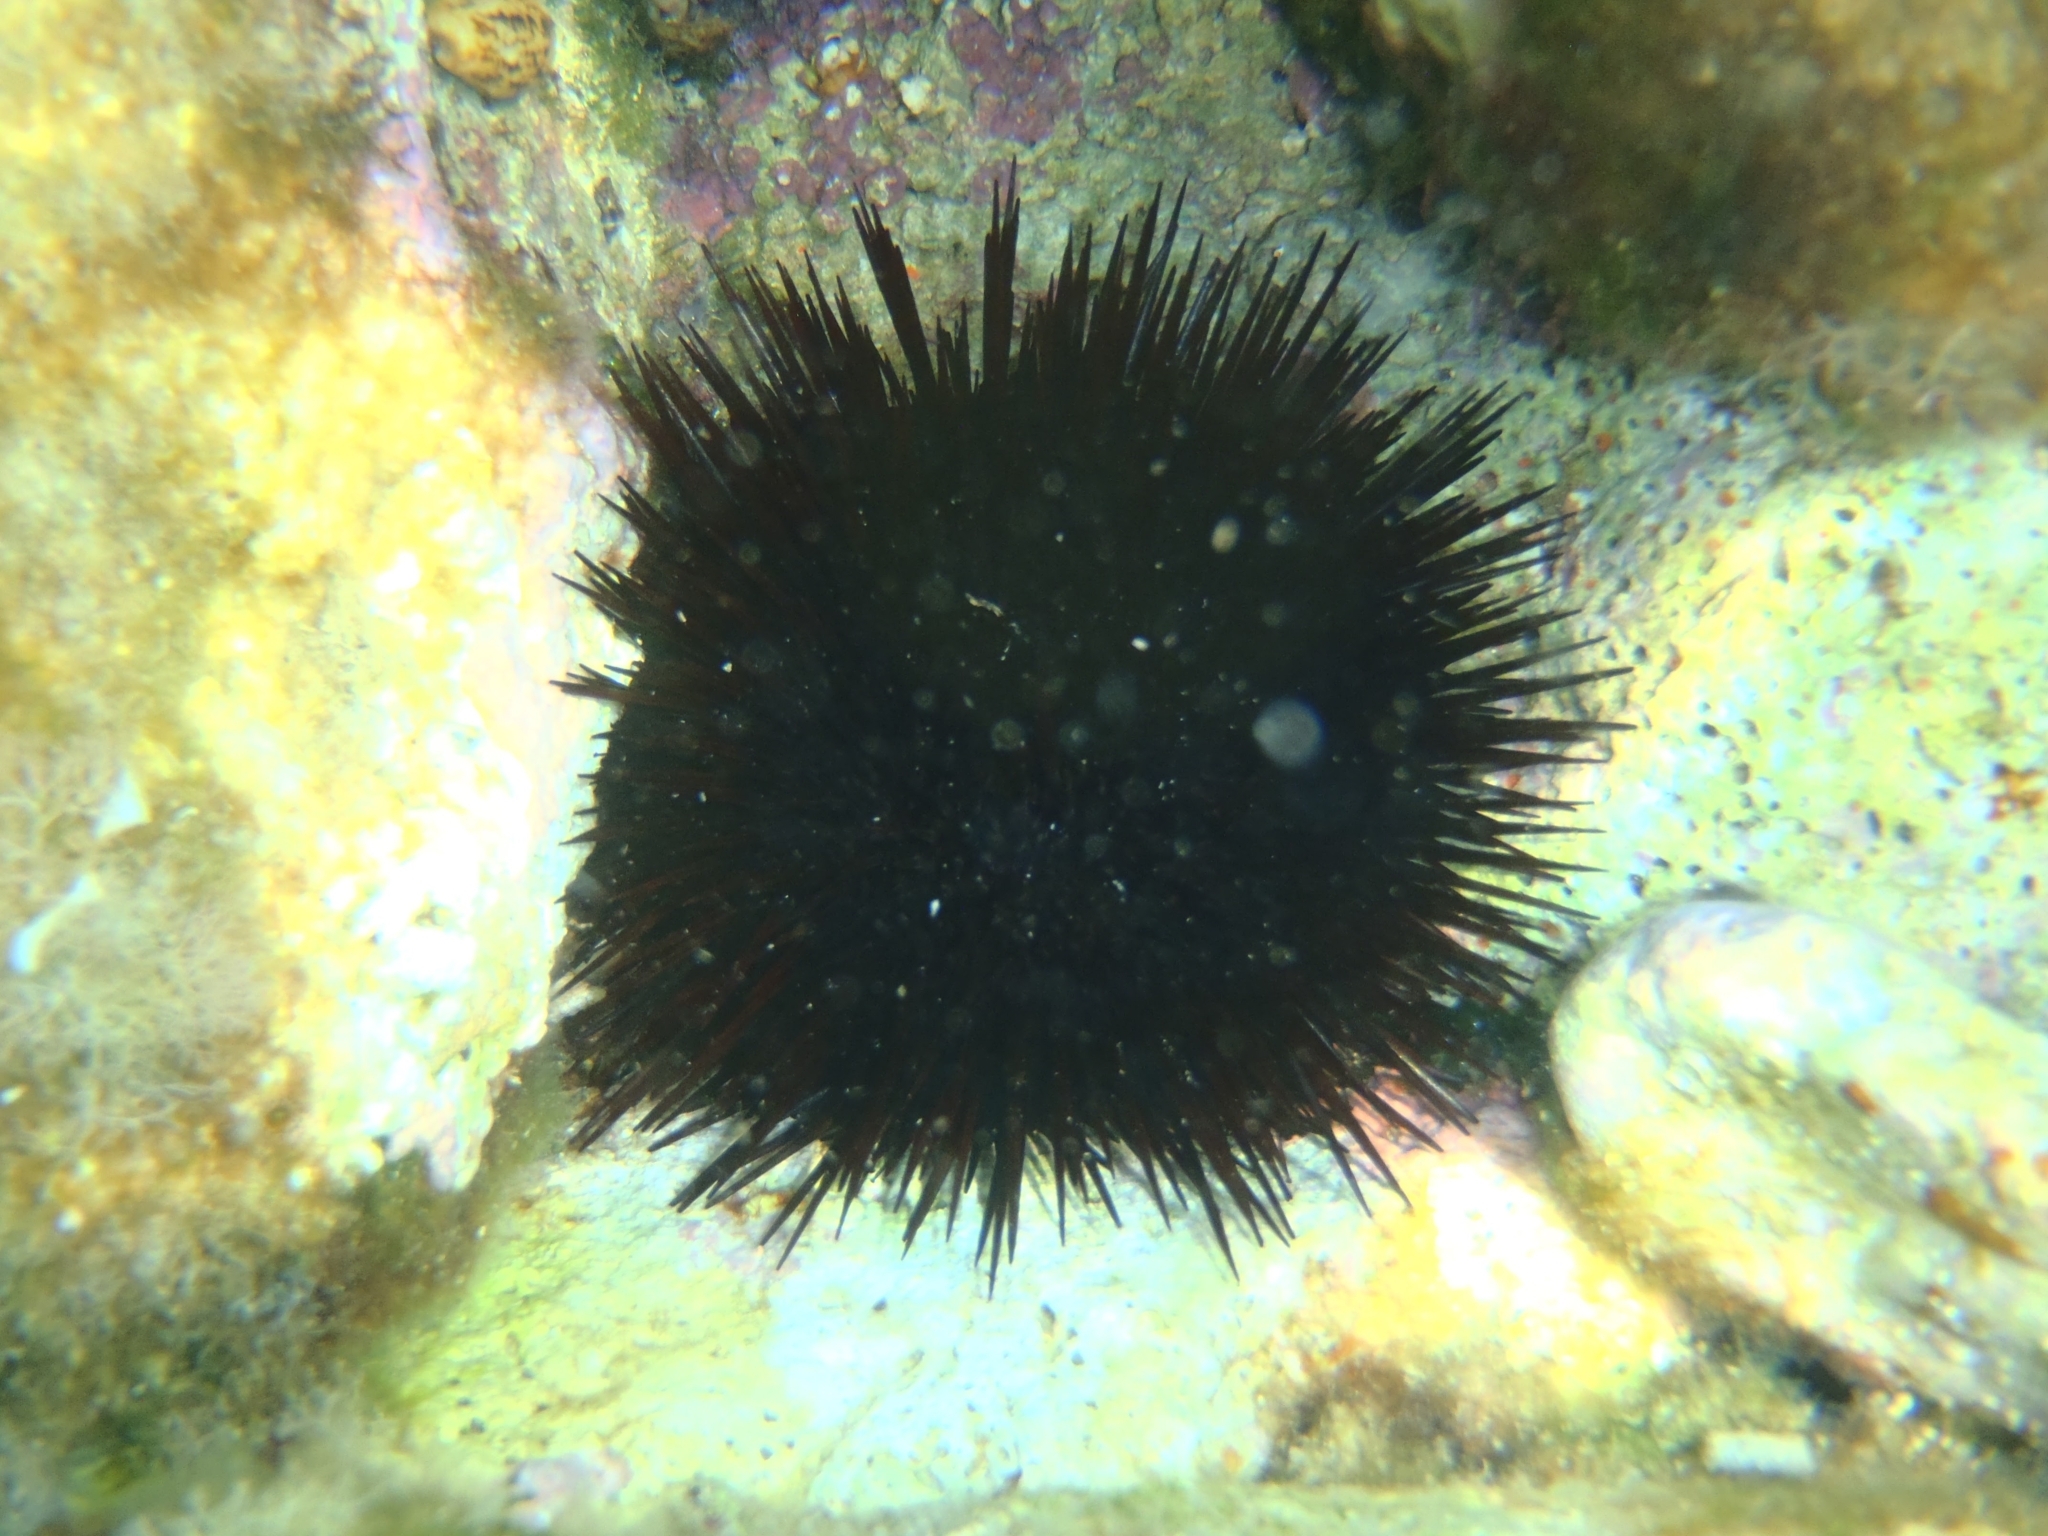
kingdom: Animalia
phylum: Echinodermata
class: Echinoidea
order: Arbacioida
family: Arbaciidae
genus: Arbacia
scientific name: Arbacia lixula
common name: Black sea urchin
